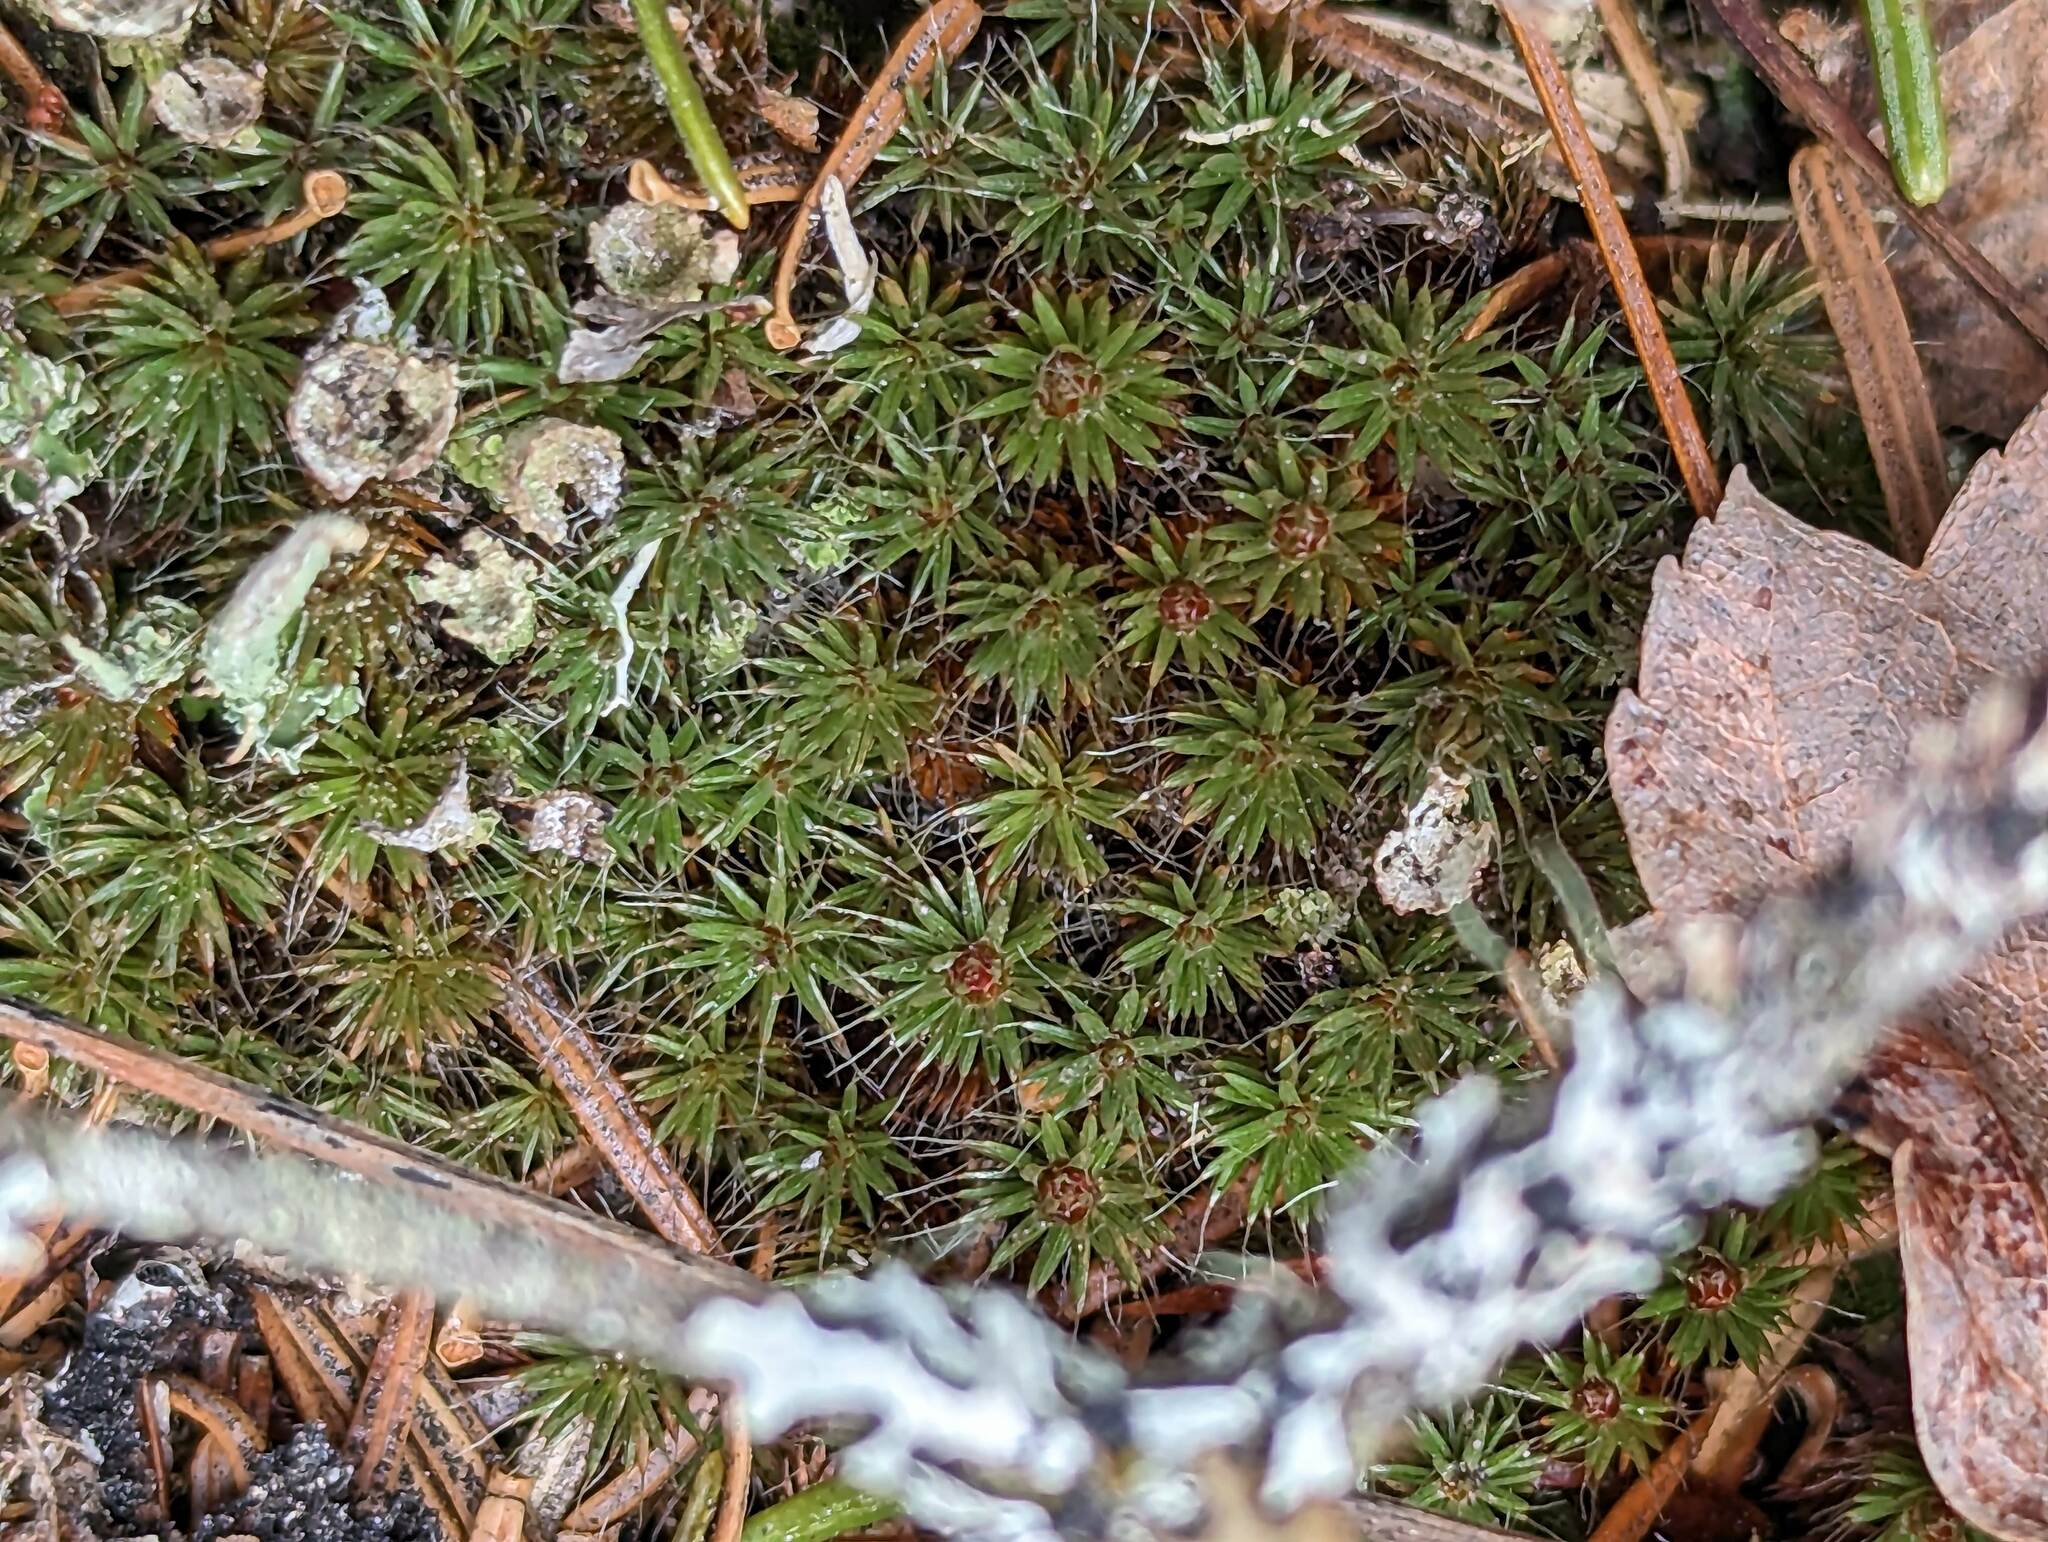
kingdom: Plantae
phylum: Bryophyta
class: Polytrichopsida
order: Polytrichales
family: Polytrichaceae
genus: Polytrichum
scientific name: Polytrichum piliferum
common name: Bristly haircap
